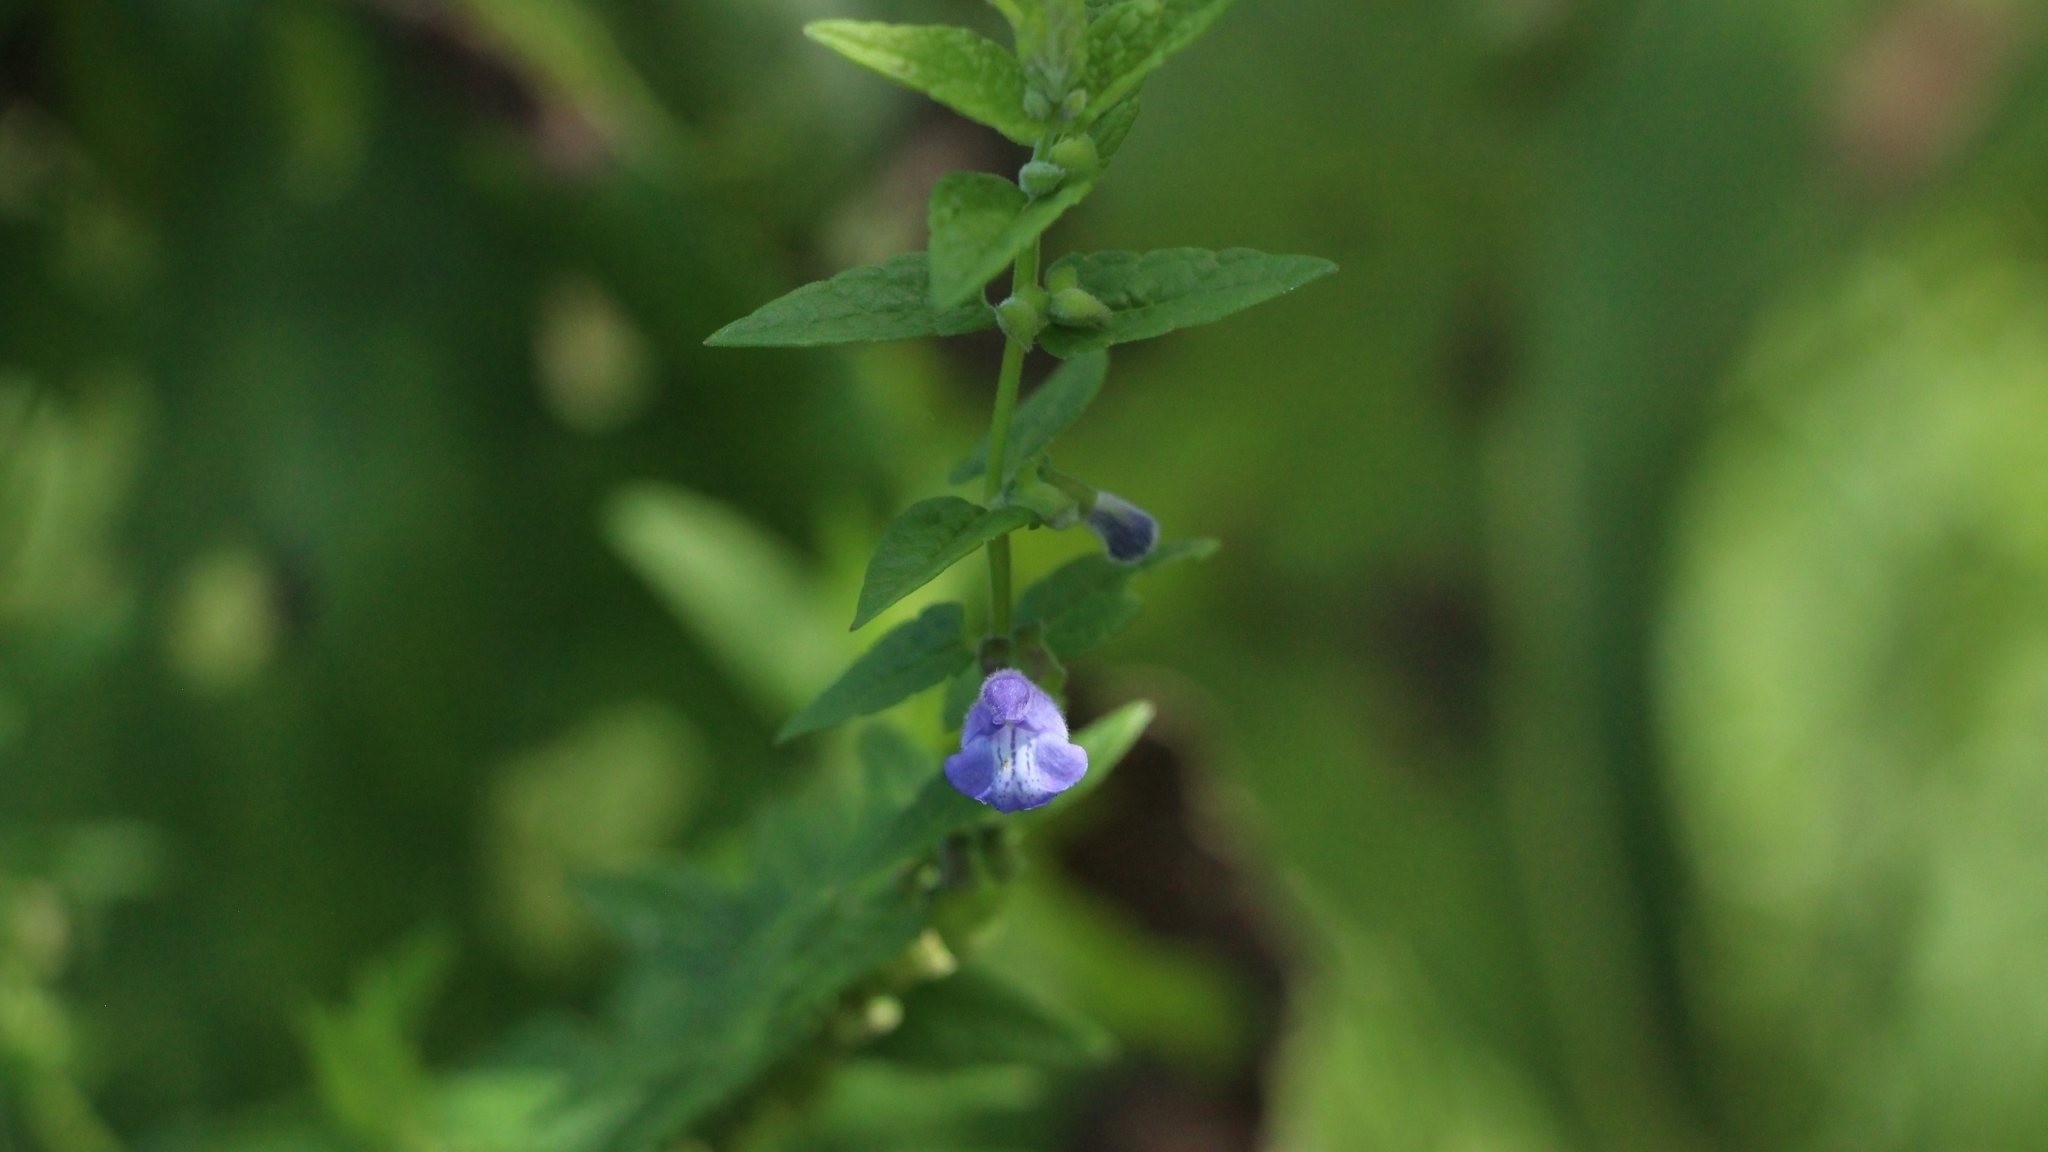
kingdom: Plantae
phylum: Tracheophyta
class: Magnoliopsida
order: Lamiales
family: Lamiaceae
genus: Scutellaria
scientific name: Scutellaria galericulata
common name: Skullcap
